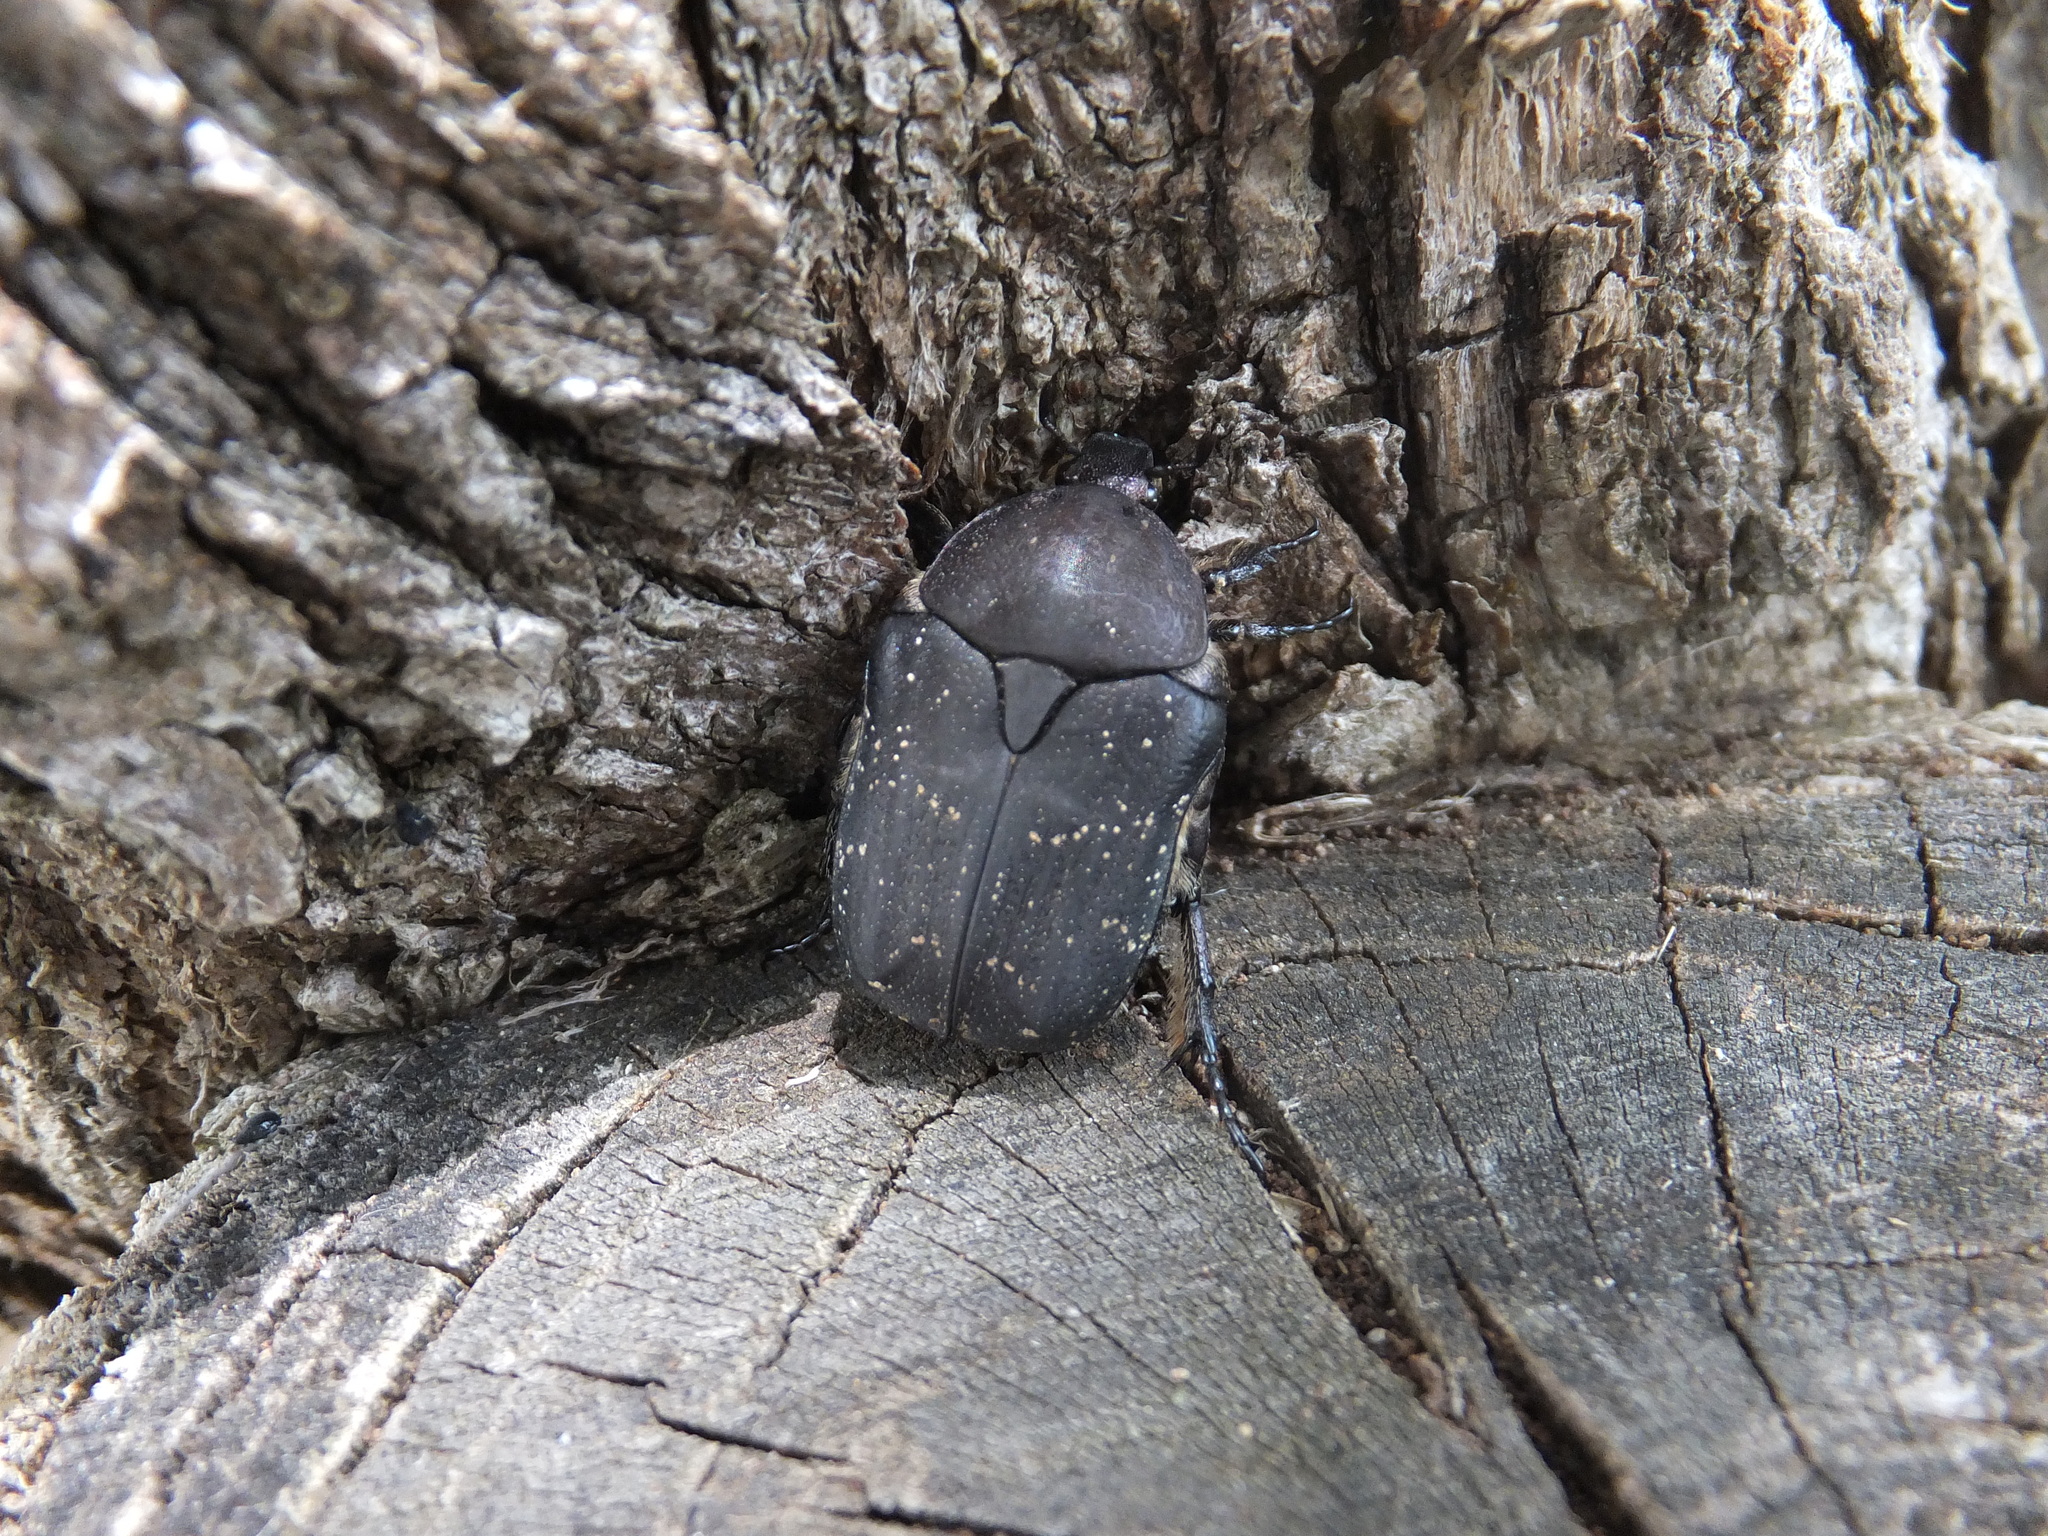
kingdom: Animalia
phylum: Arthropoda
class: Insecta
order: Coleoptera
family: Scarabaeidae
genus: Protaetia
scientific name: Protaetia morio
